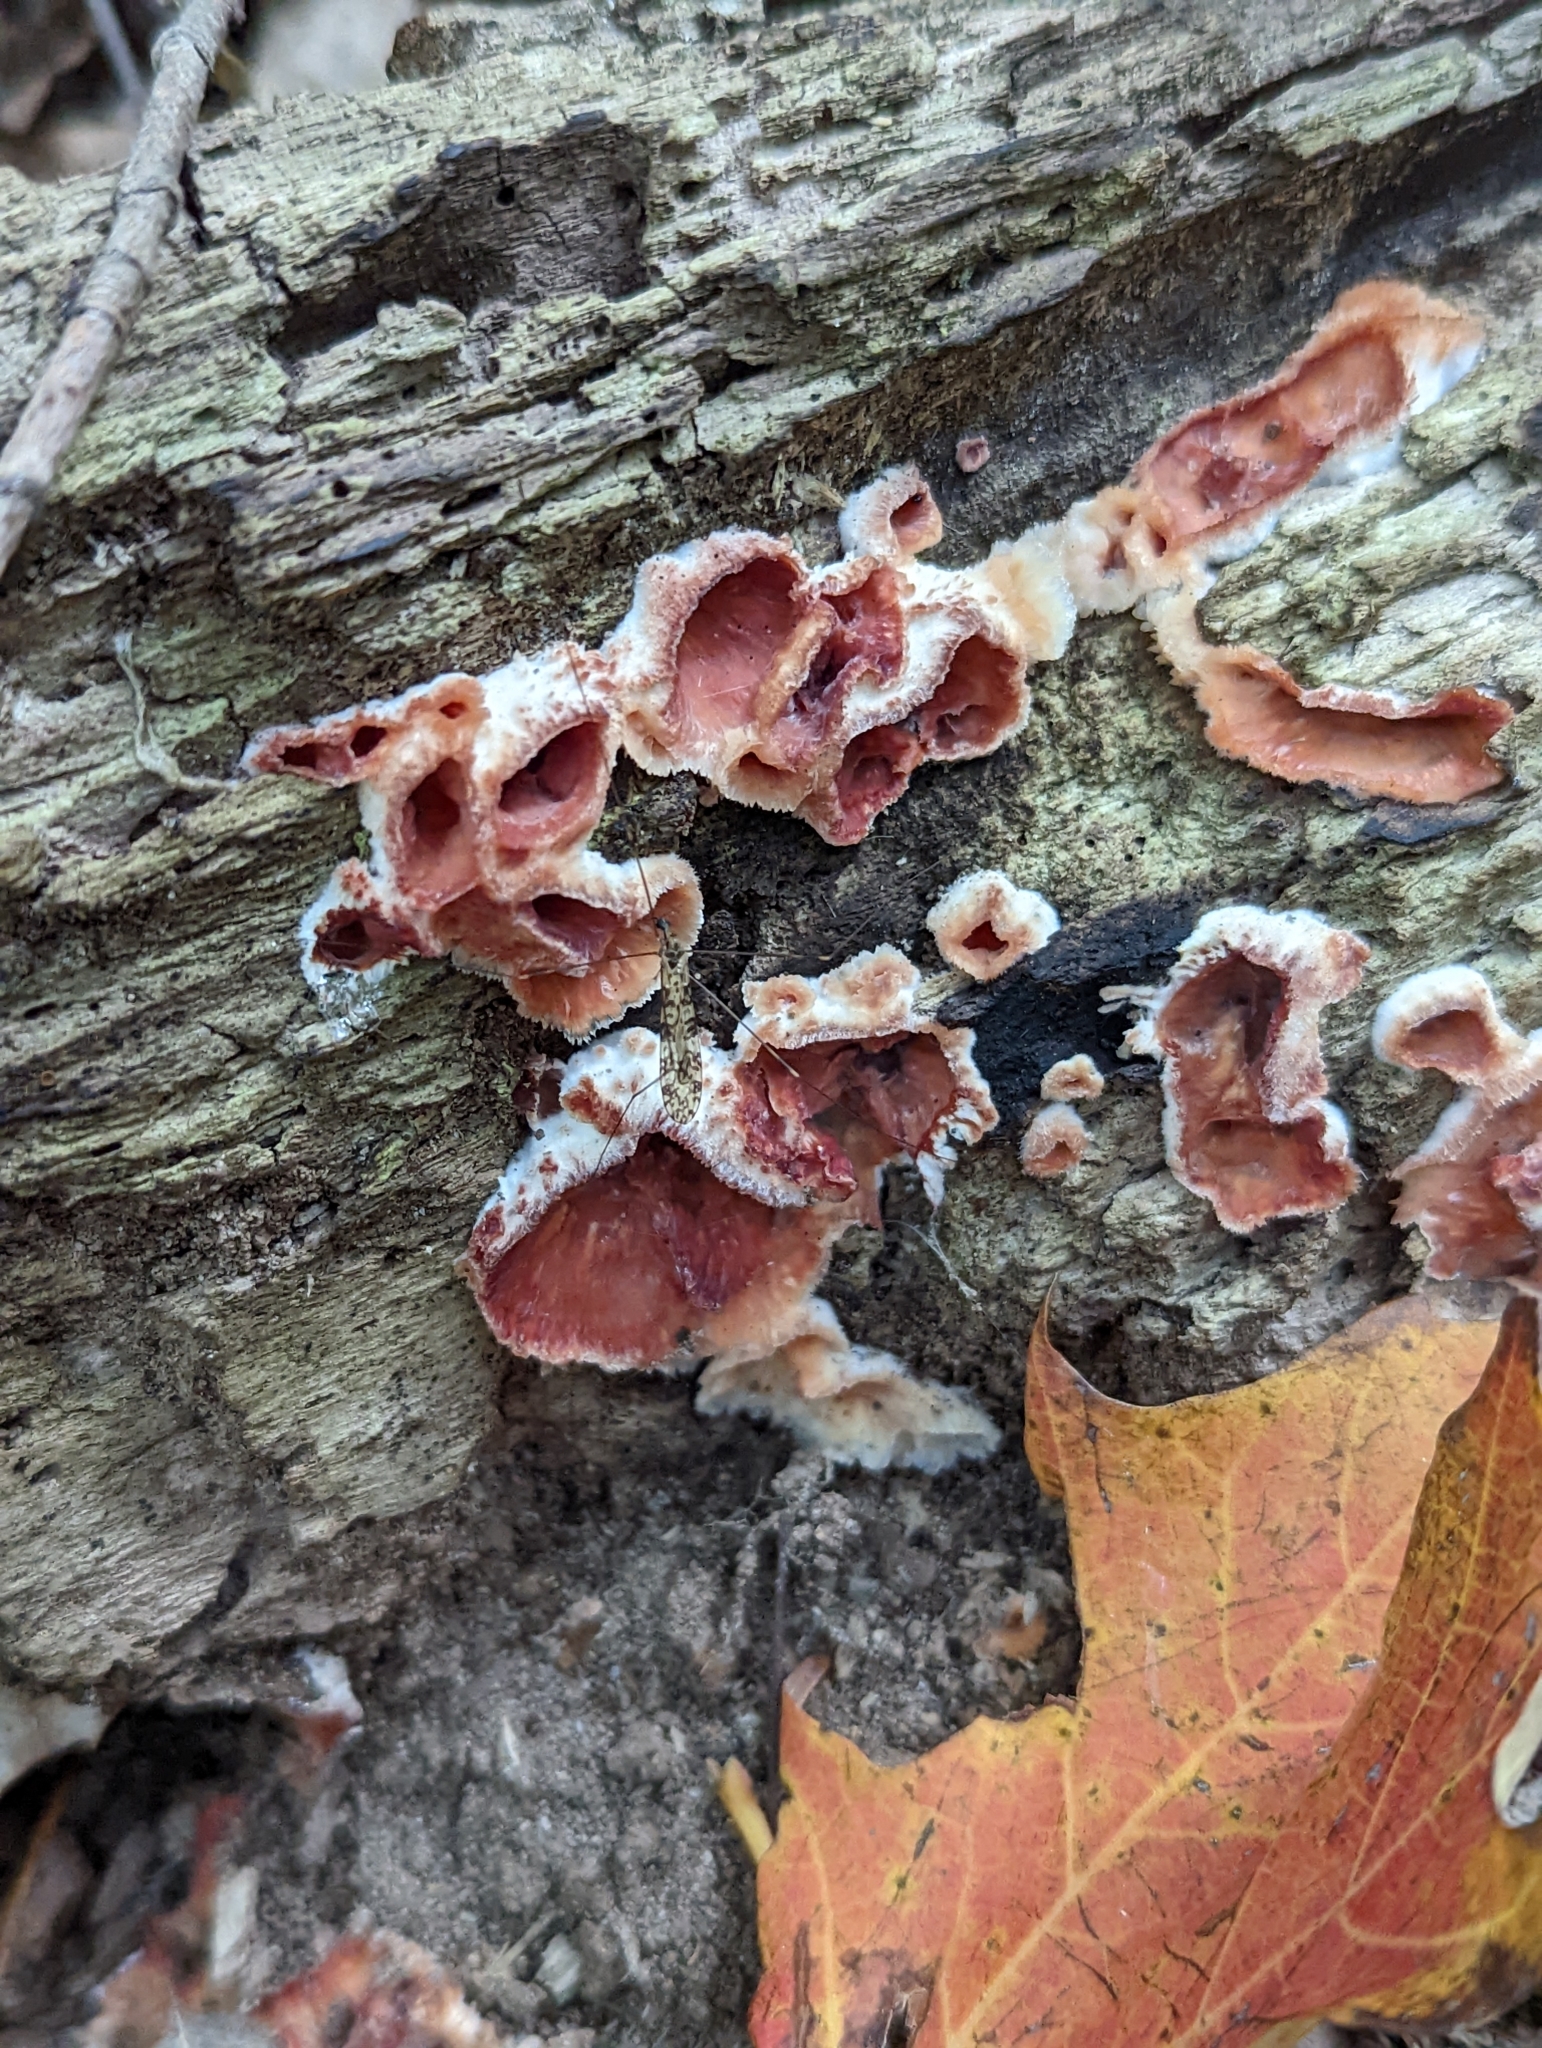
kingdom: Fungi
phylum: Basidiomycota
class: Agaricomycetes
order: Polyporales
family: Meruliaceae
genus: Phlebia
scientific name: Phlebia tremellosa
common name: Jelly rot
